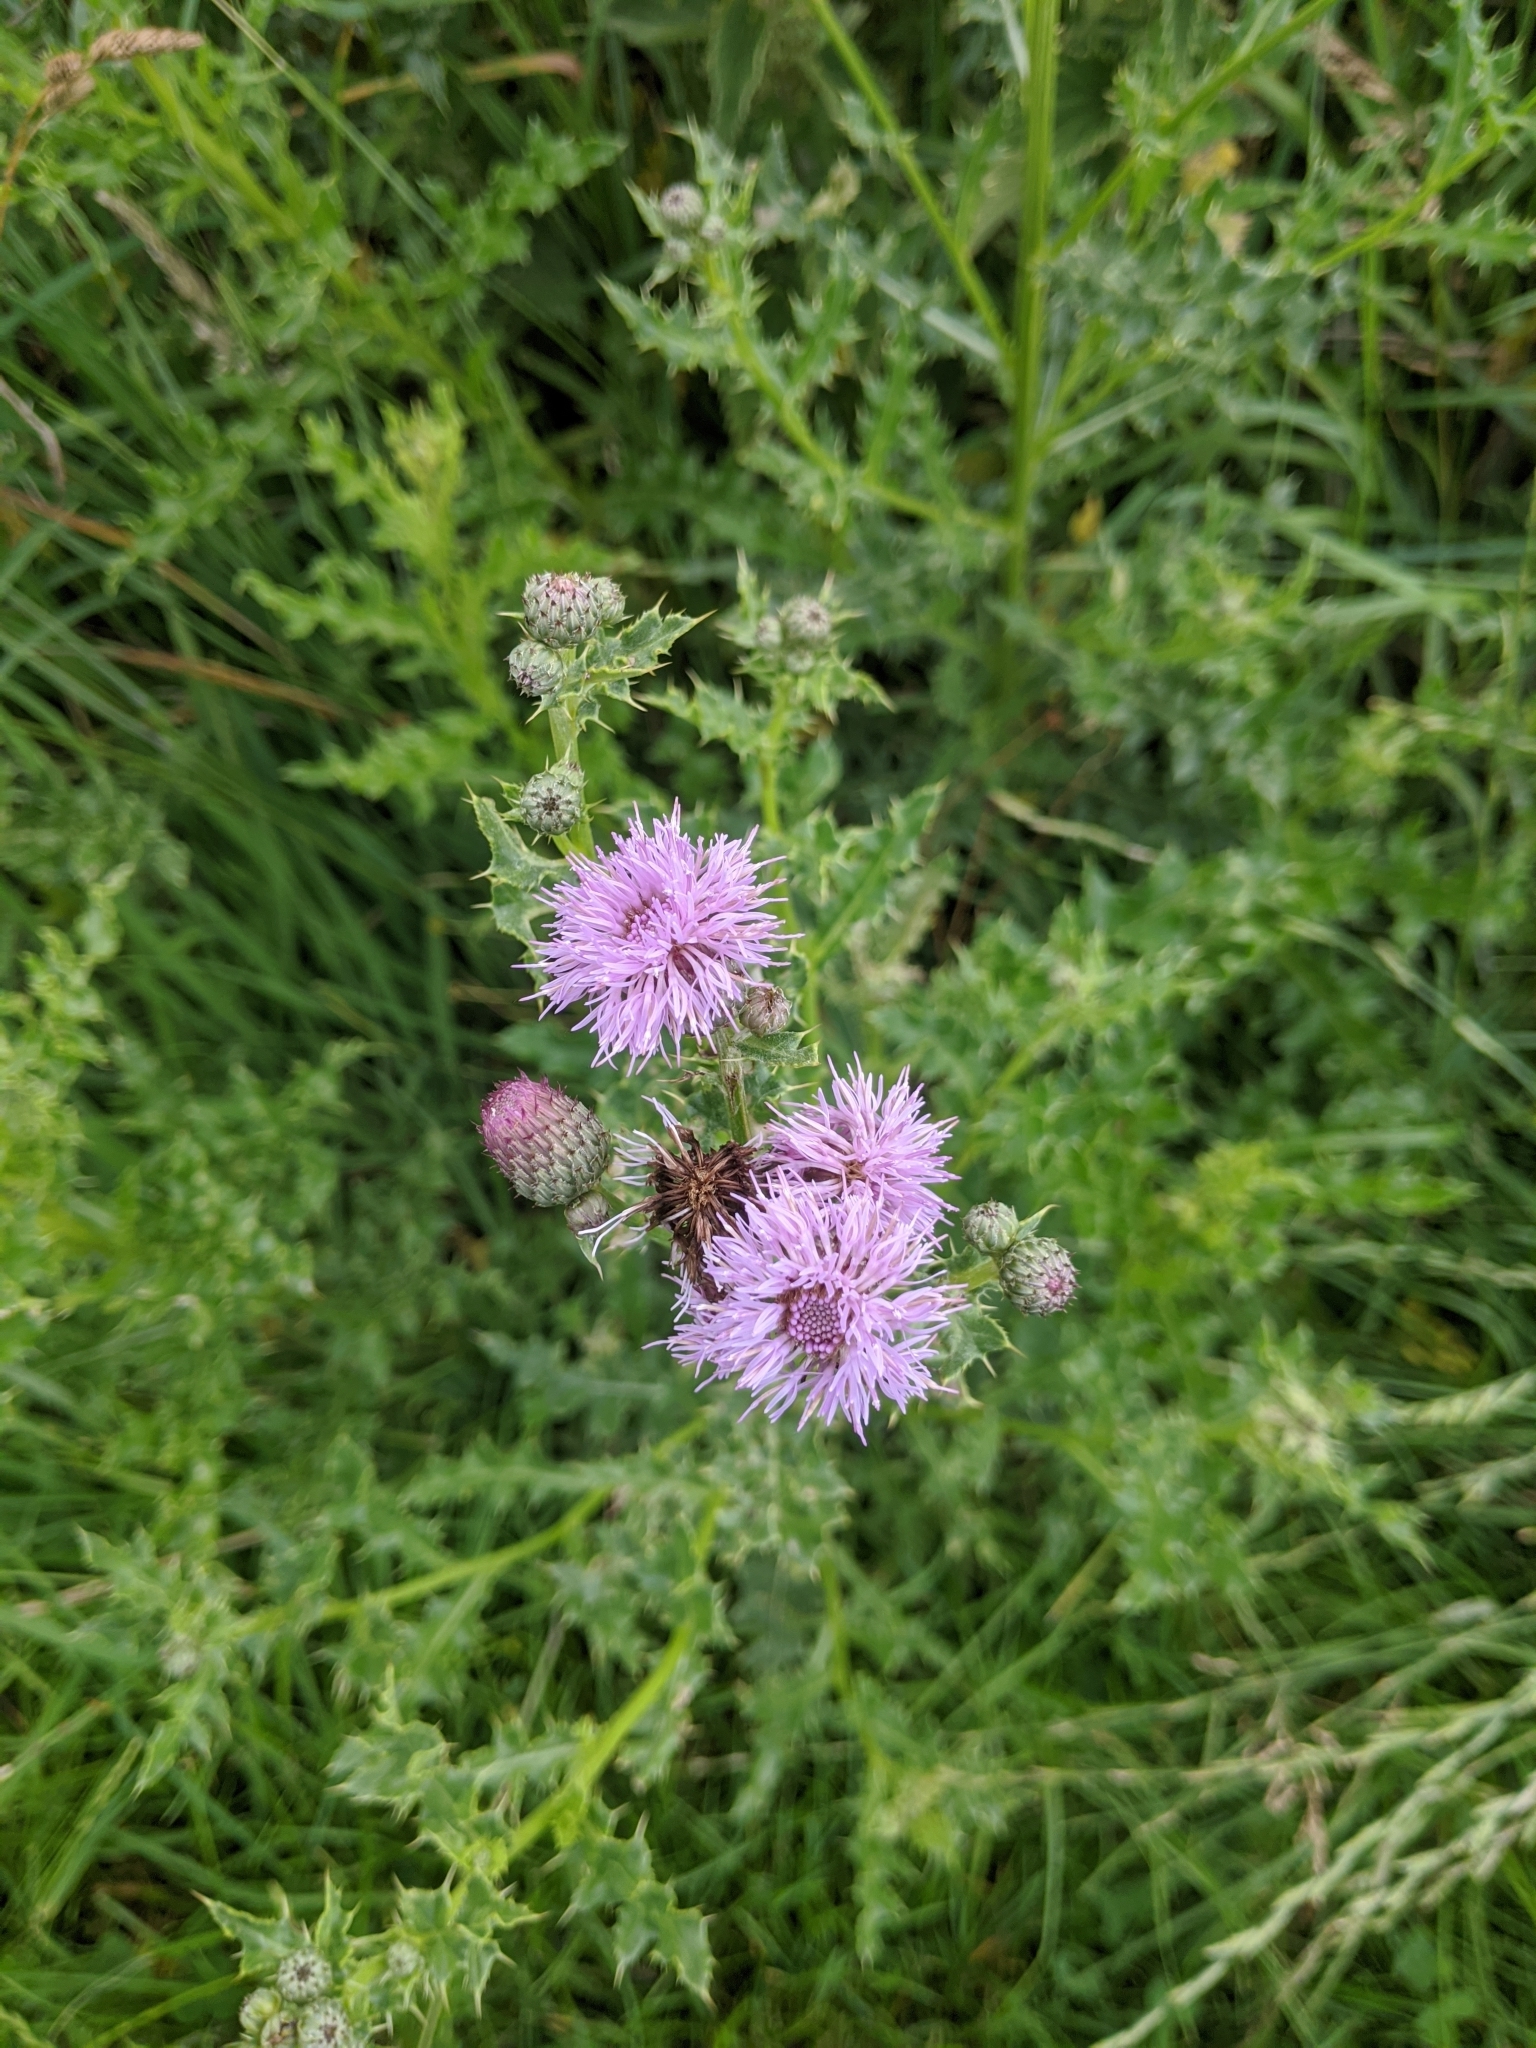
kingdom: Plantae
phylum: Tracheophyta
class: Magnoliopsida
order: Asterales
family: Asteraceae
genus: Cirsium
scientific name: Cirsium arvense
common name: Creeping thistle
